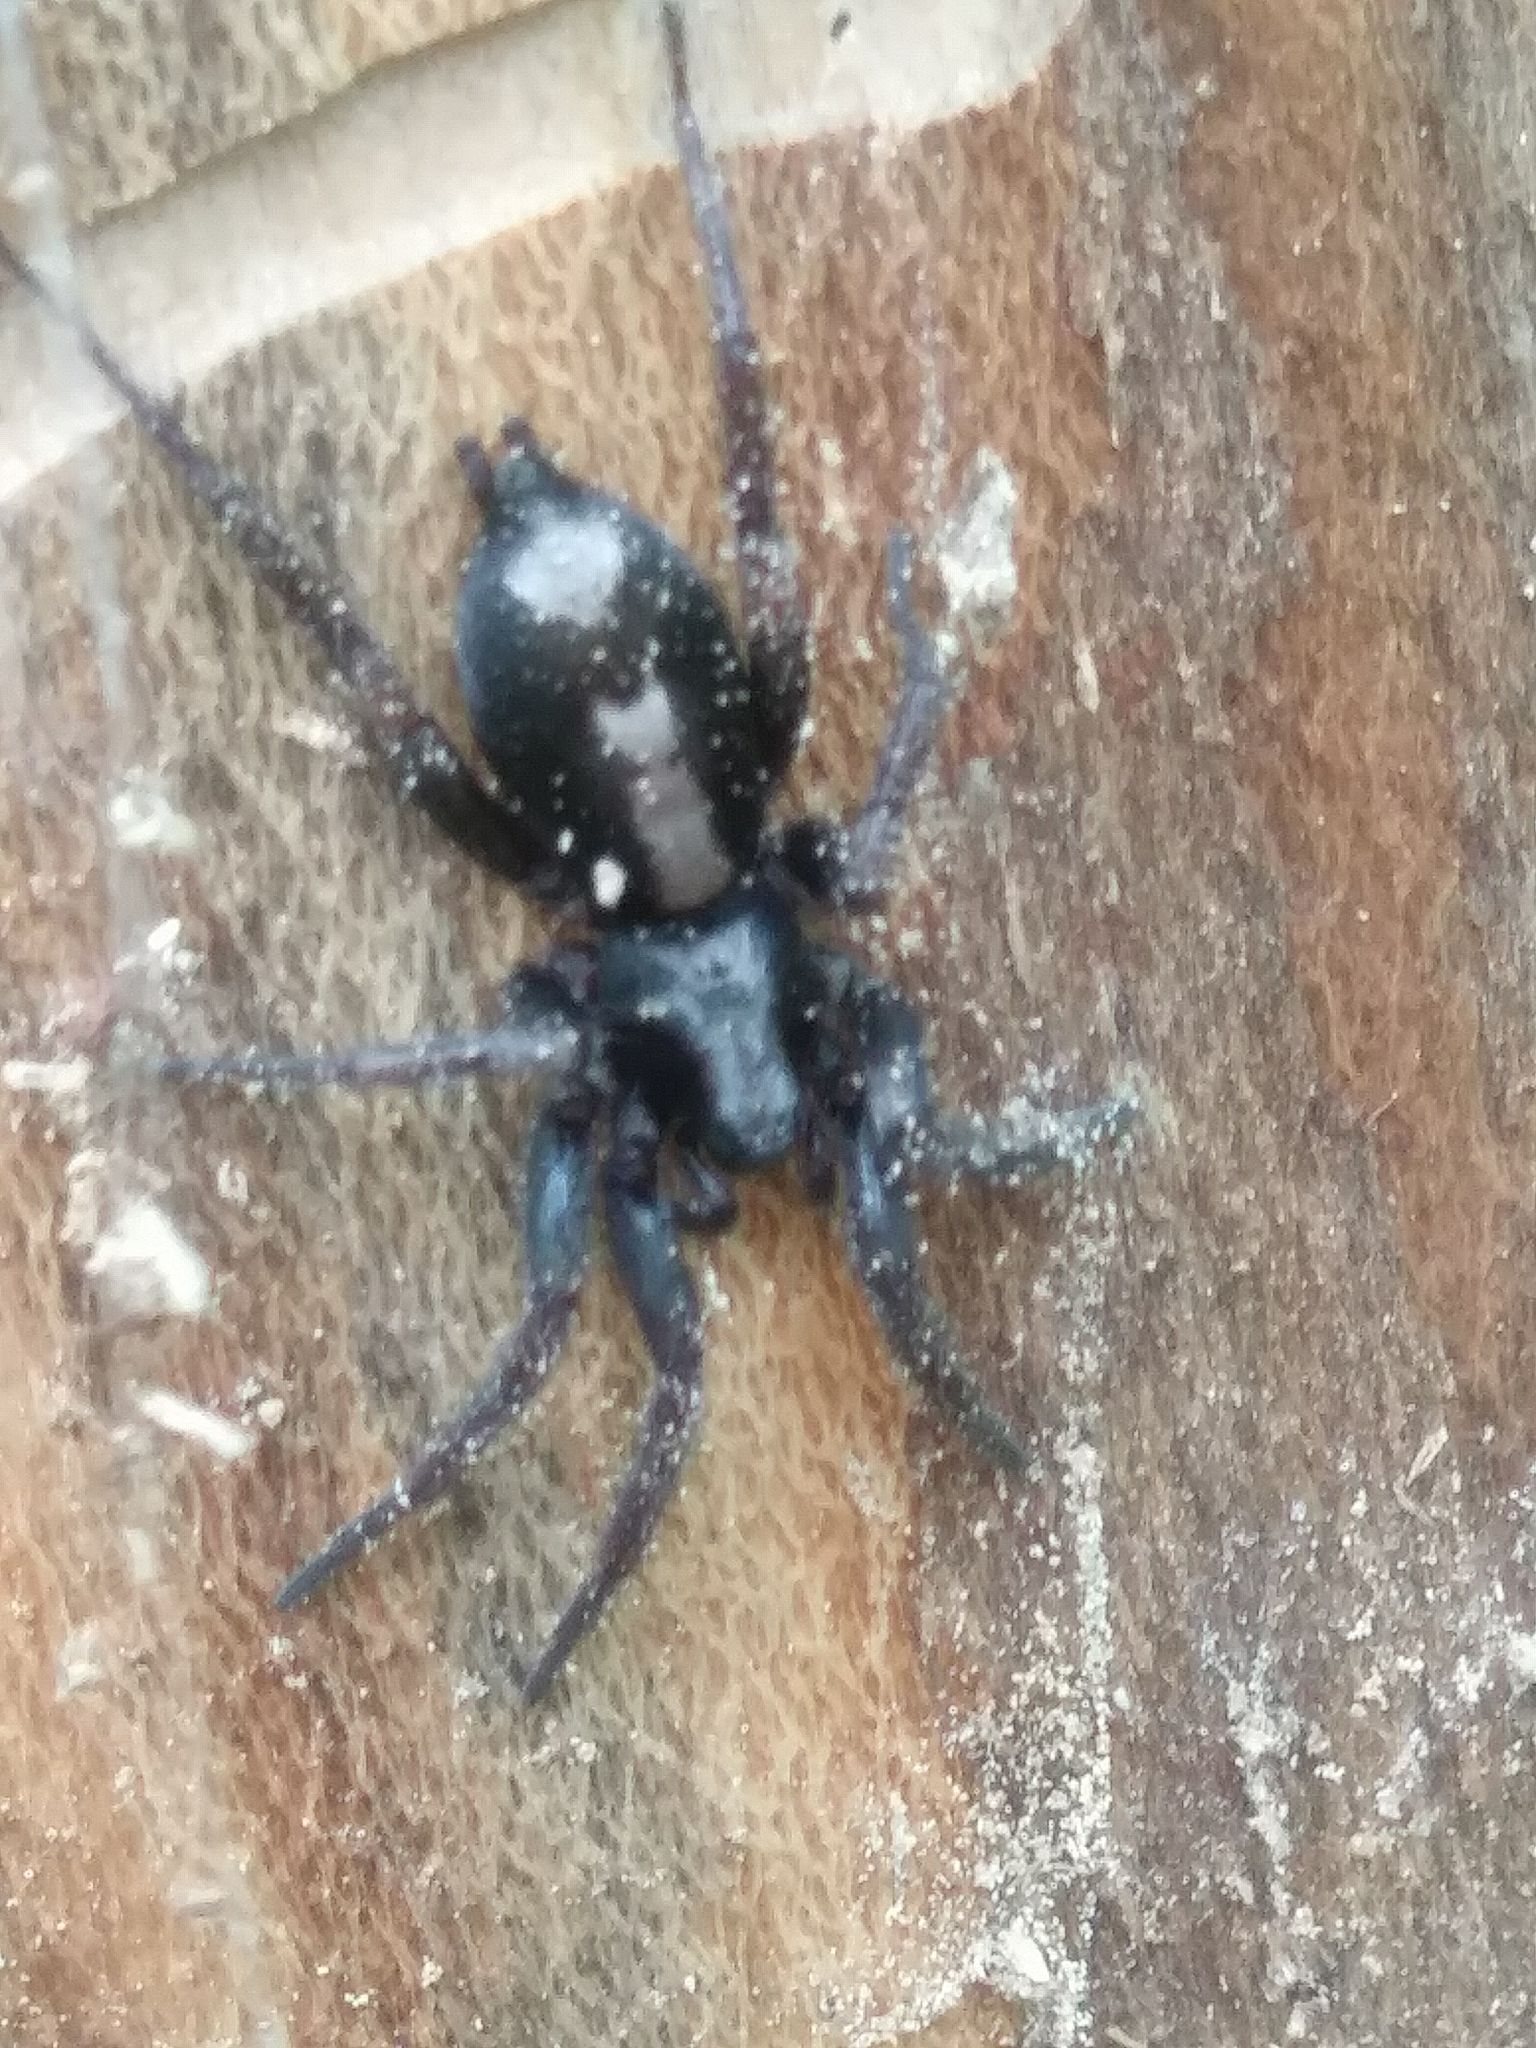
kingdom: Animalia
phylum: Arthropoda
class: Arachnida
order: Araneae
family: Gnaphosidae
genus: Herpyllus
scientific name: Herpyllus ecclesiasticus
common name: Eastern parson spider
